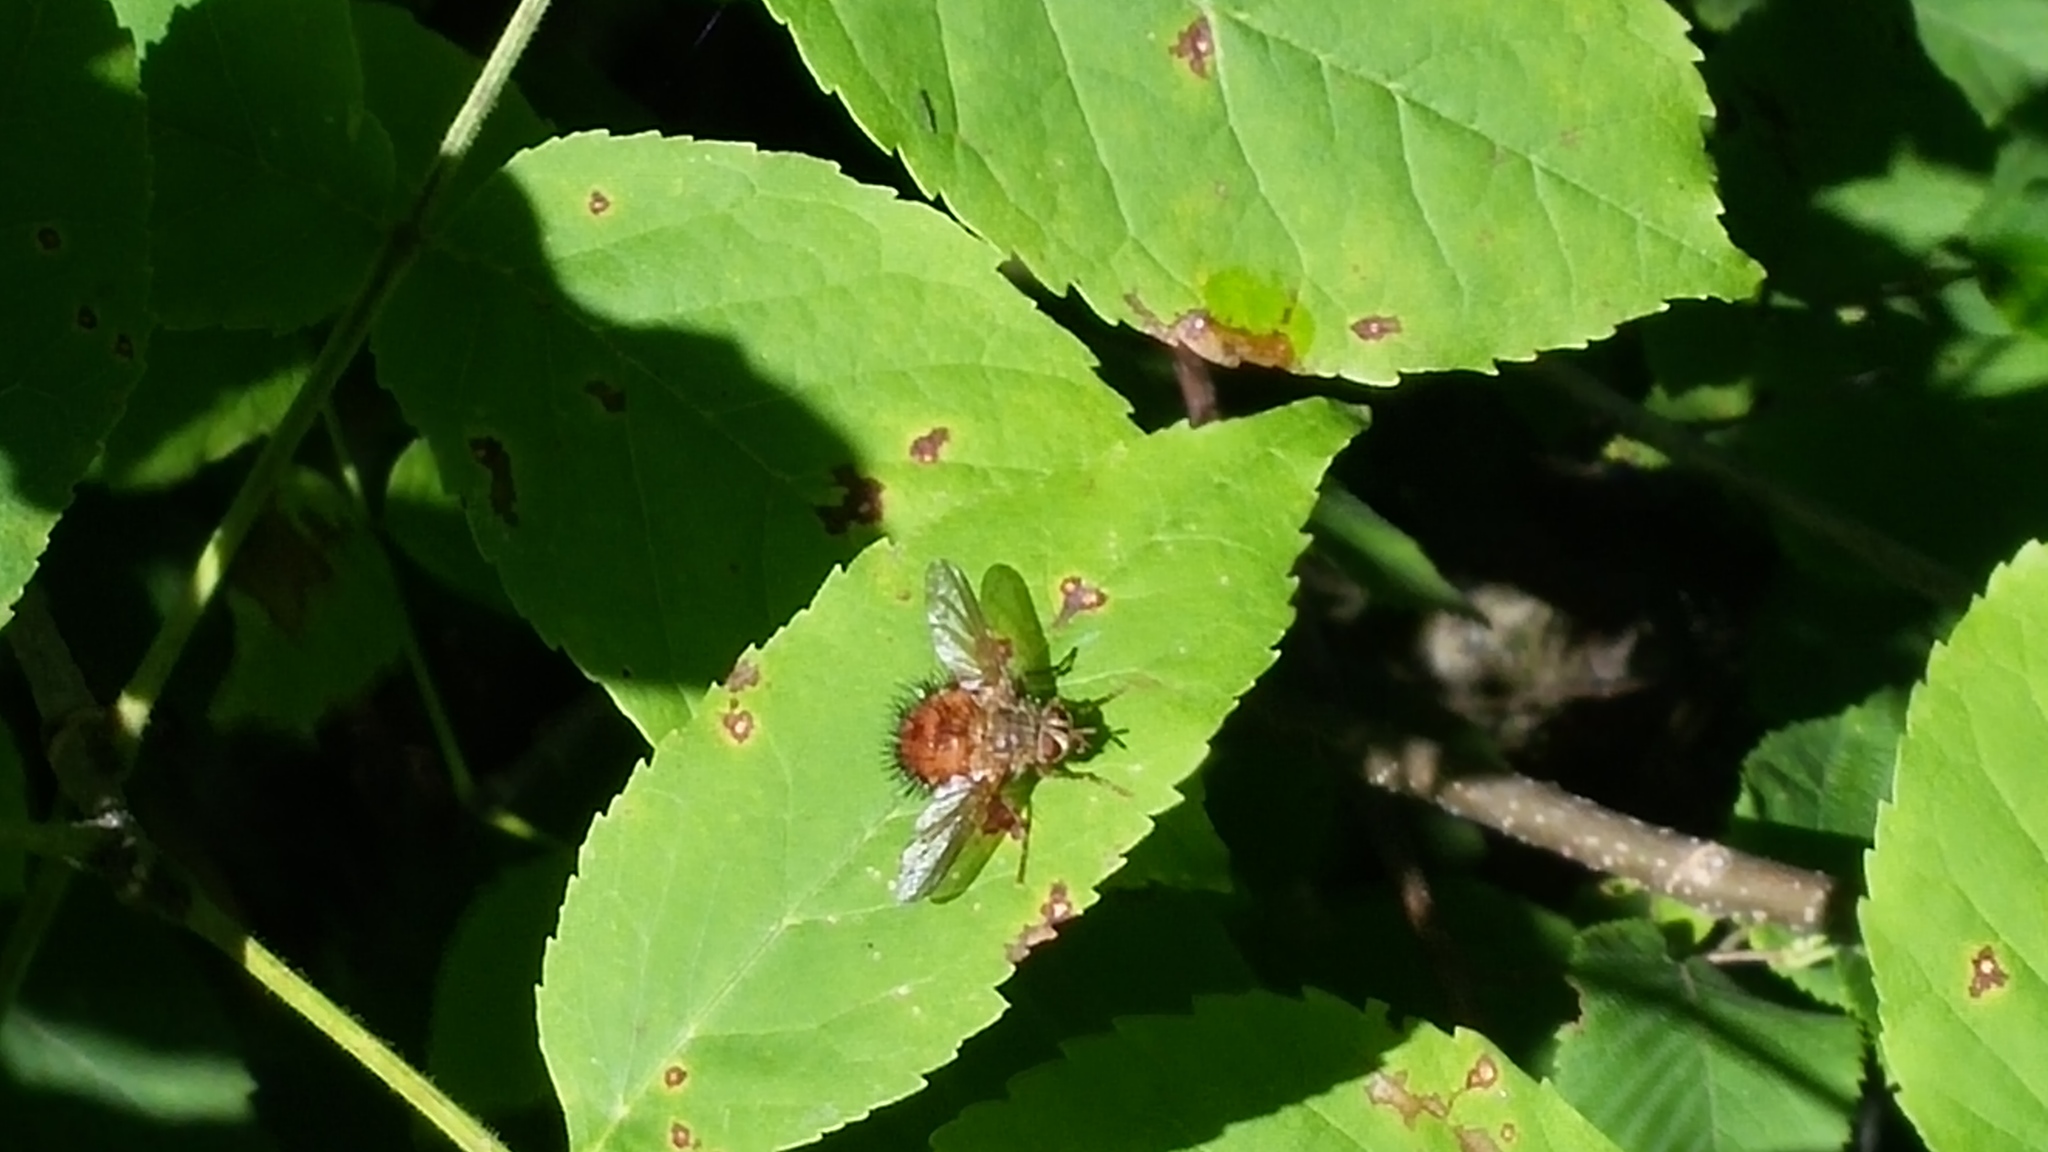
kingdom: Animalia
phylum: Arthropoda
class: Insecta
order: Diptera
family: Tachinidae
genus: Hystricia
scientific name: Hystricia abrupta
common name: Tomato bristle fly
